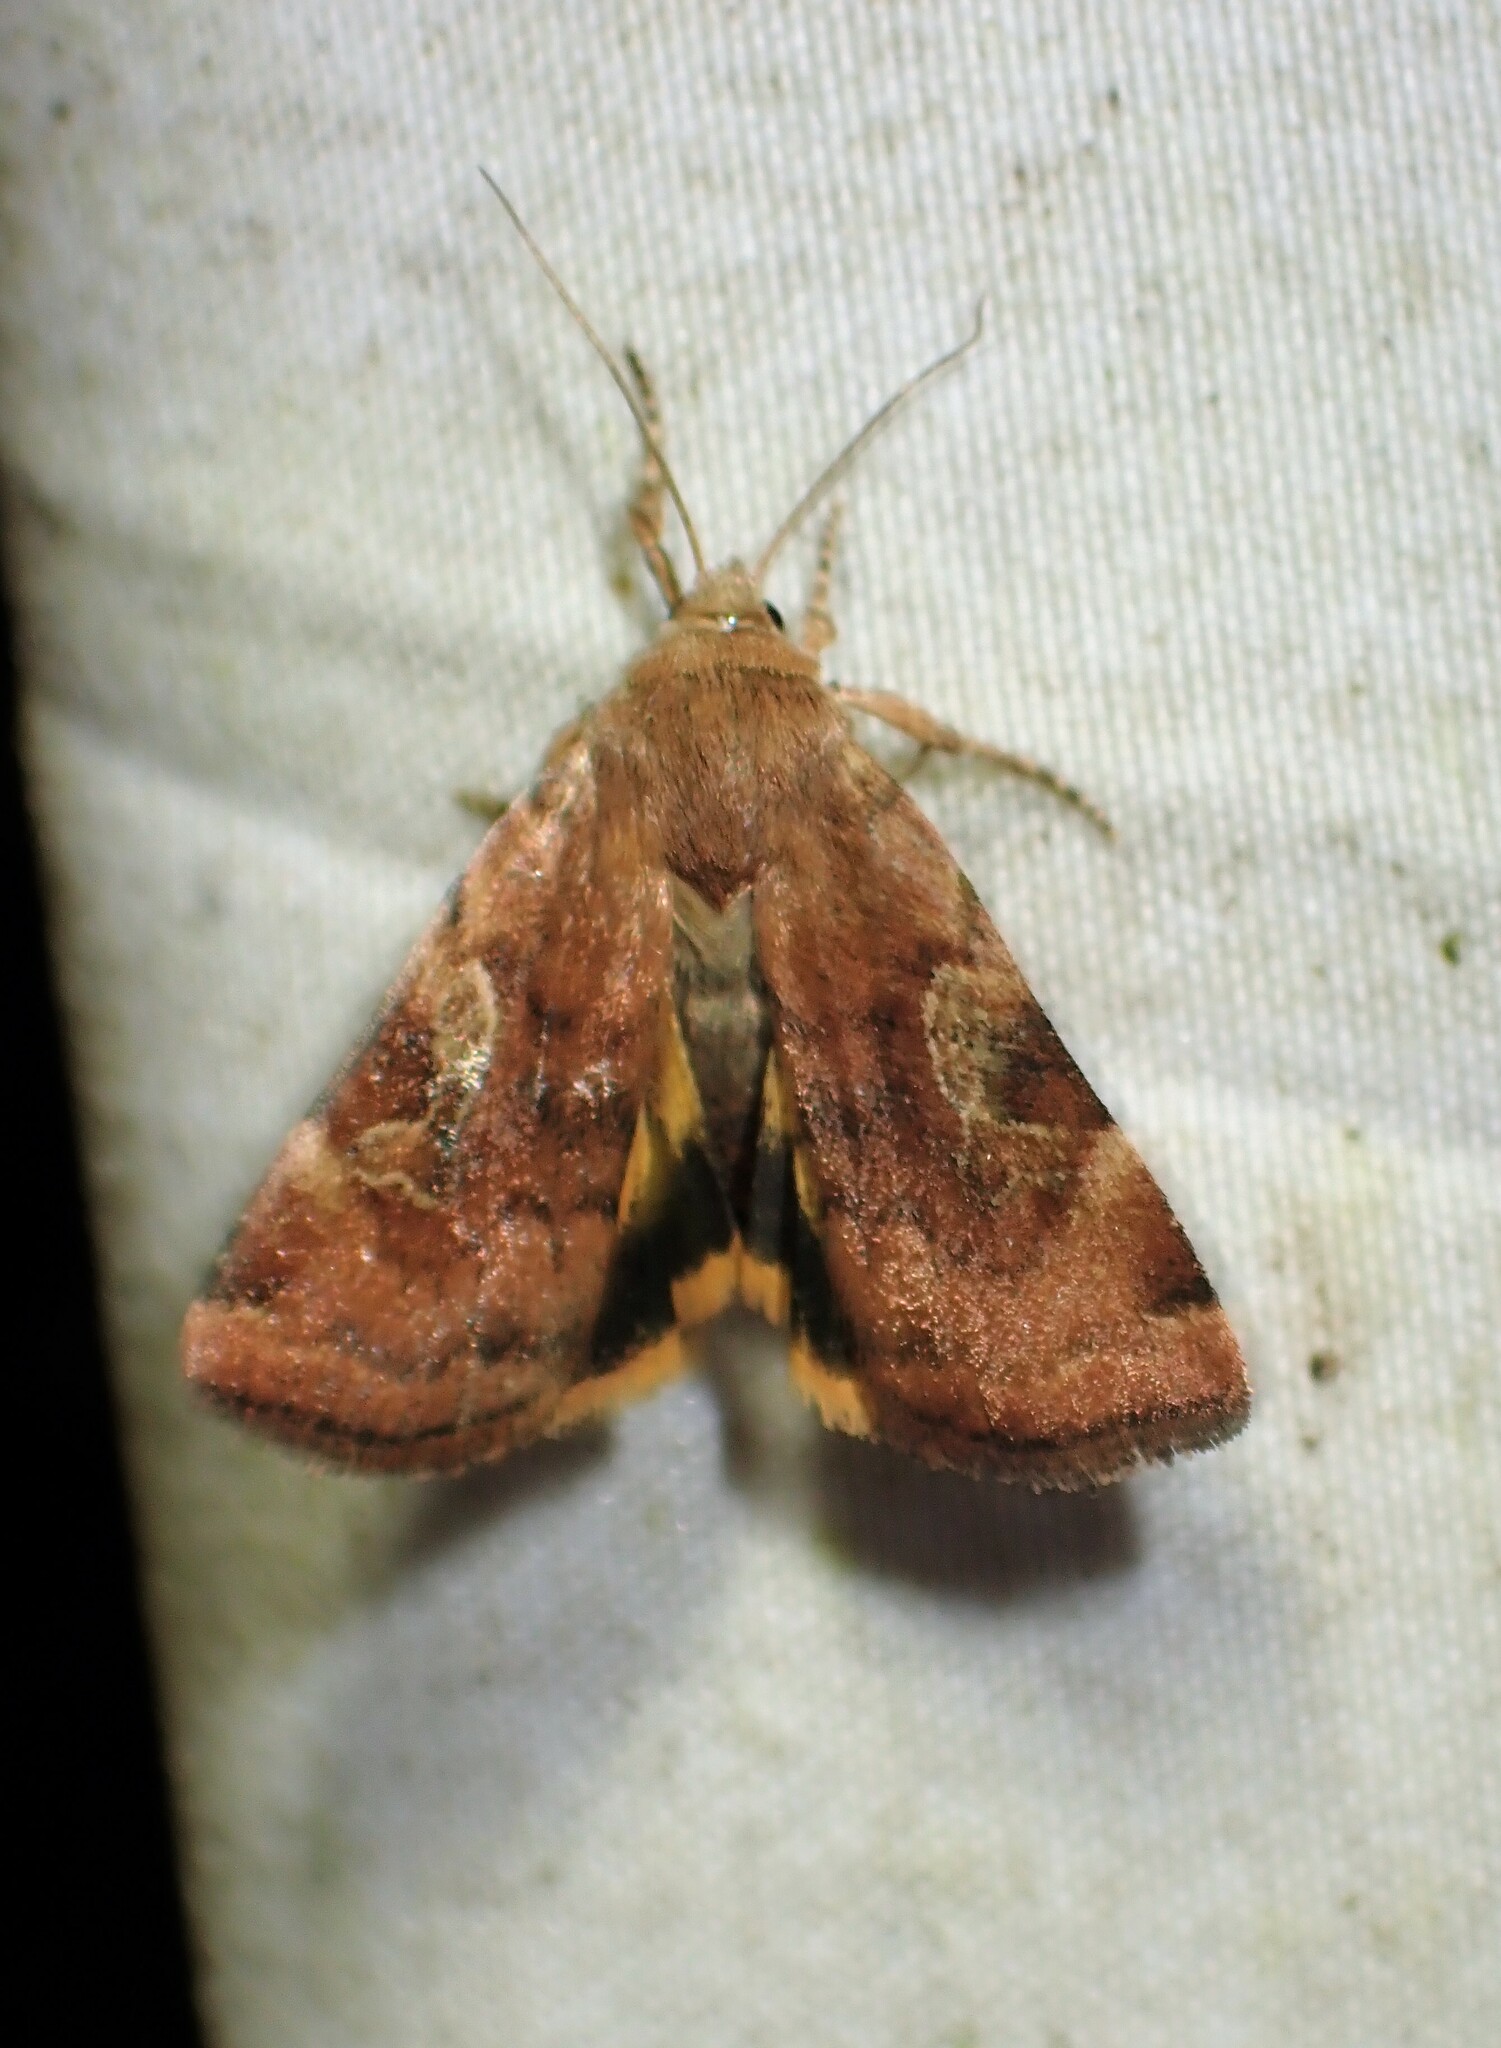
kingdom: Animalia
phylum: Arthropoda
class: Insecta
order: Lepidoptera
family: Noctuidae
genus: Cryptocala
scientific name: Cryptocala acadiensis
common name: Catocaline dart
